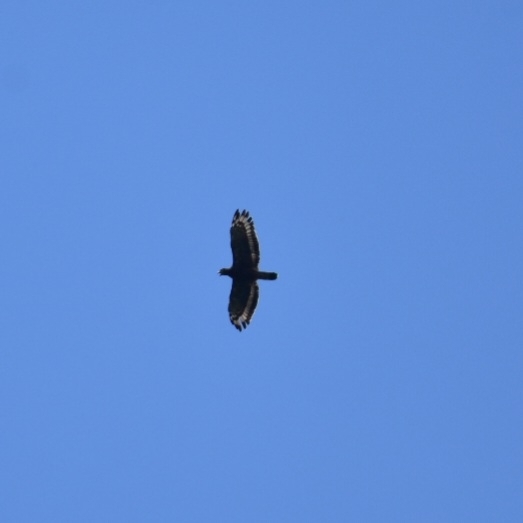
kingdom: Animalia
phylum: Chordata
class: Aves
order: Accipitriformes
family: Accipitridae
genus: Spilornis
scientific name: Spilornis cheela
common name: Crested serpent eagle
